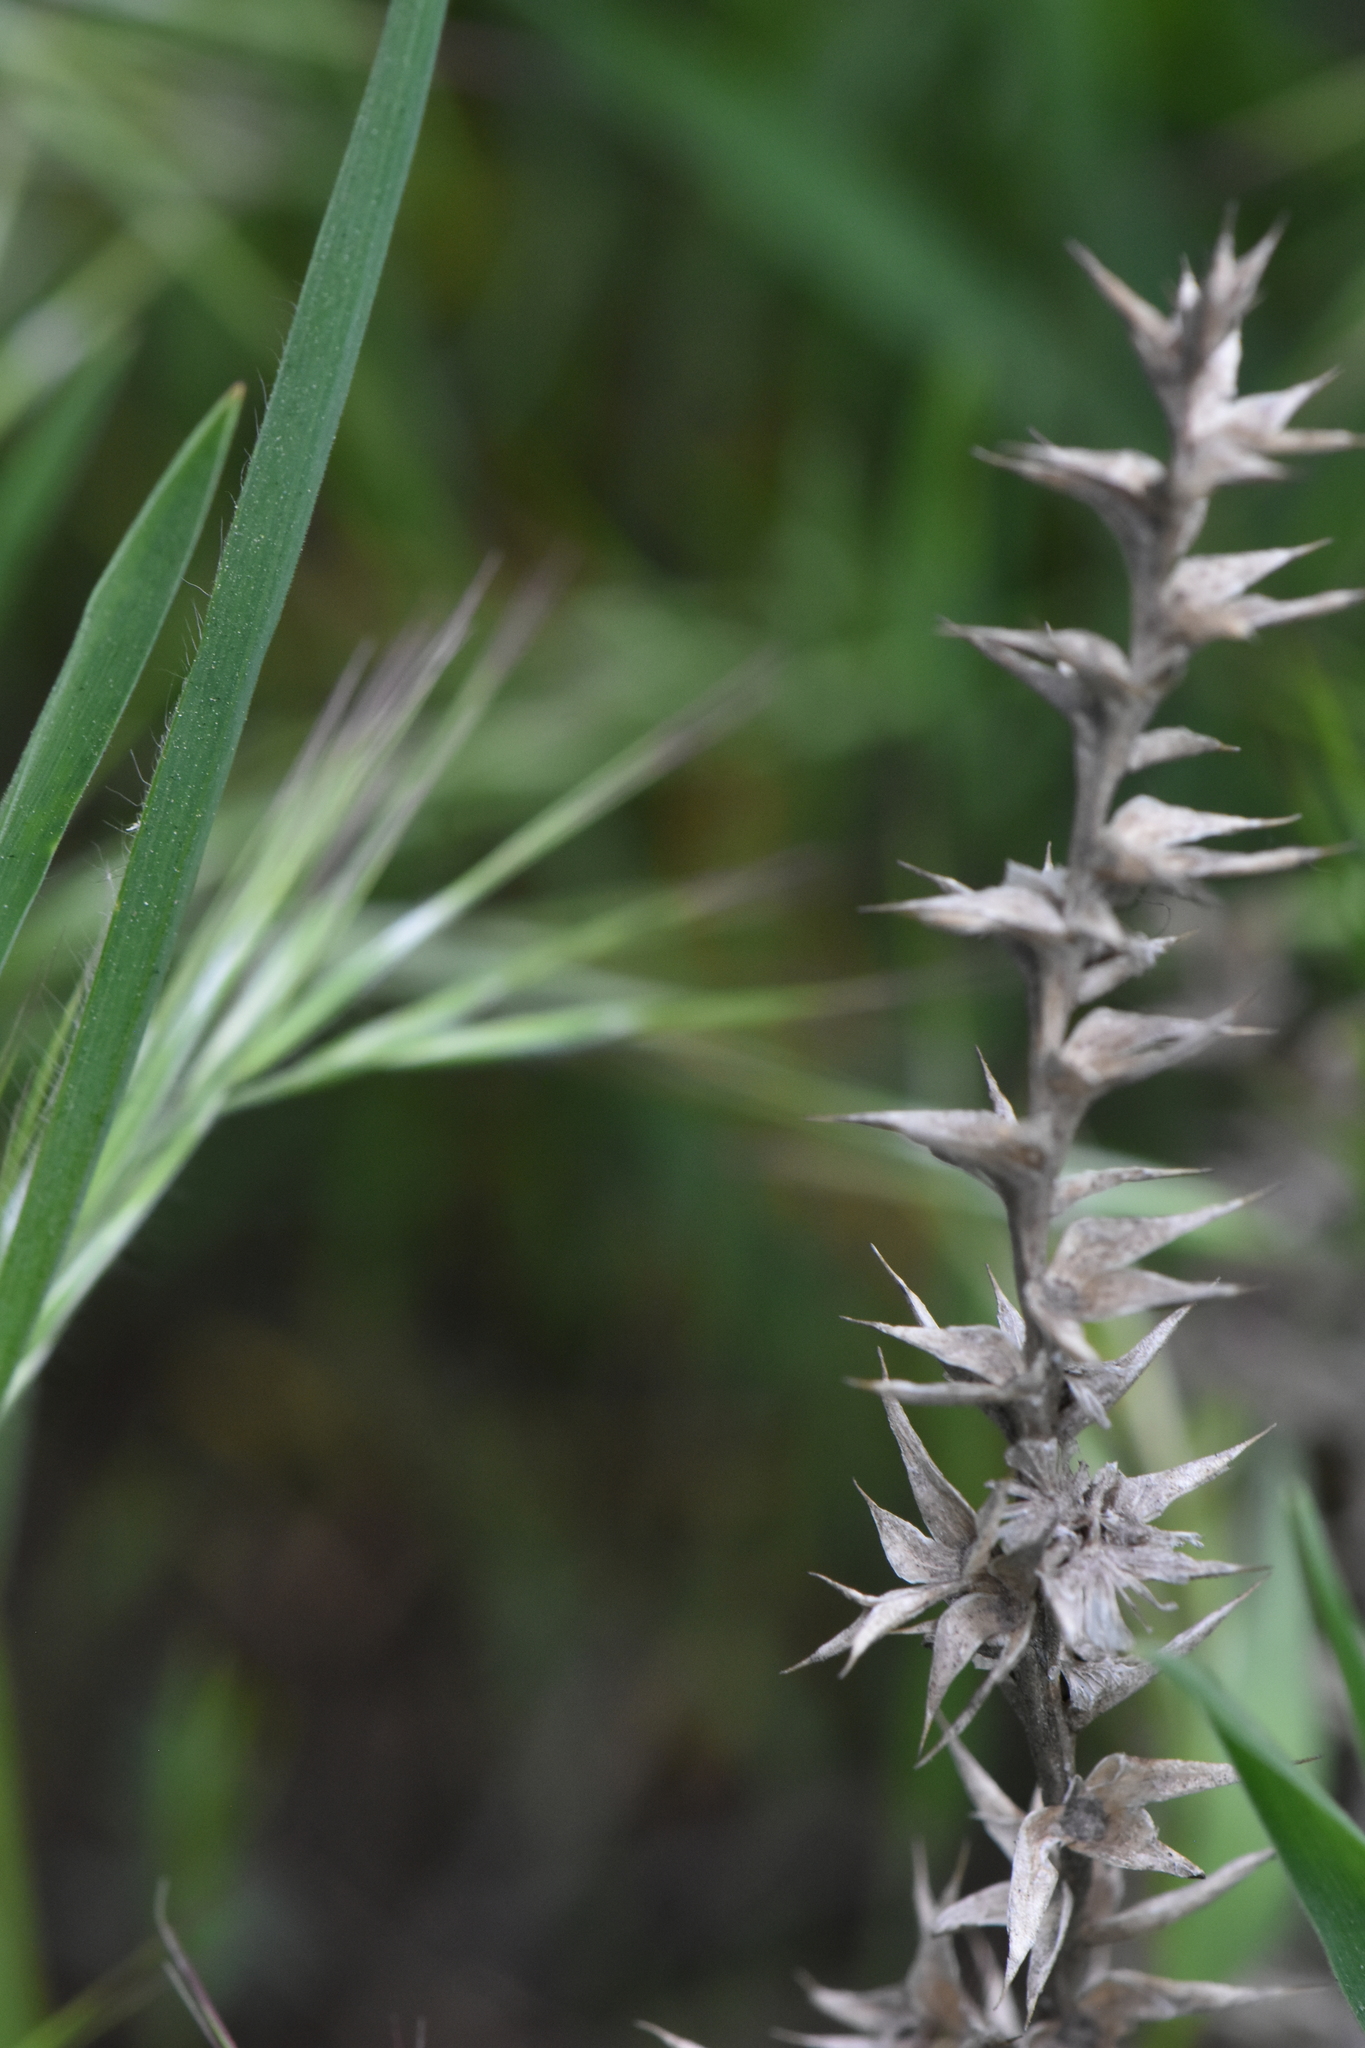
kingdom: Plantae
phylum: Tracheophyta
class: Magnoliopsida
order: Caryophyllales
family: Amaranthaceae
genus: Salsola
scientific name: Salsola tragus
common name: Prickly russian thistle
